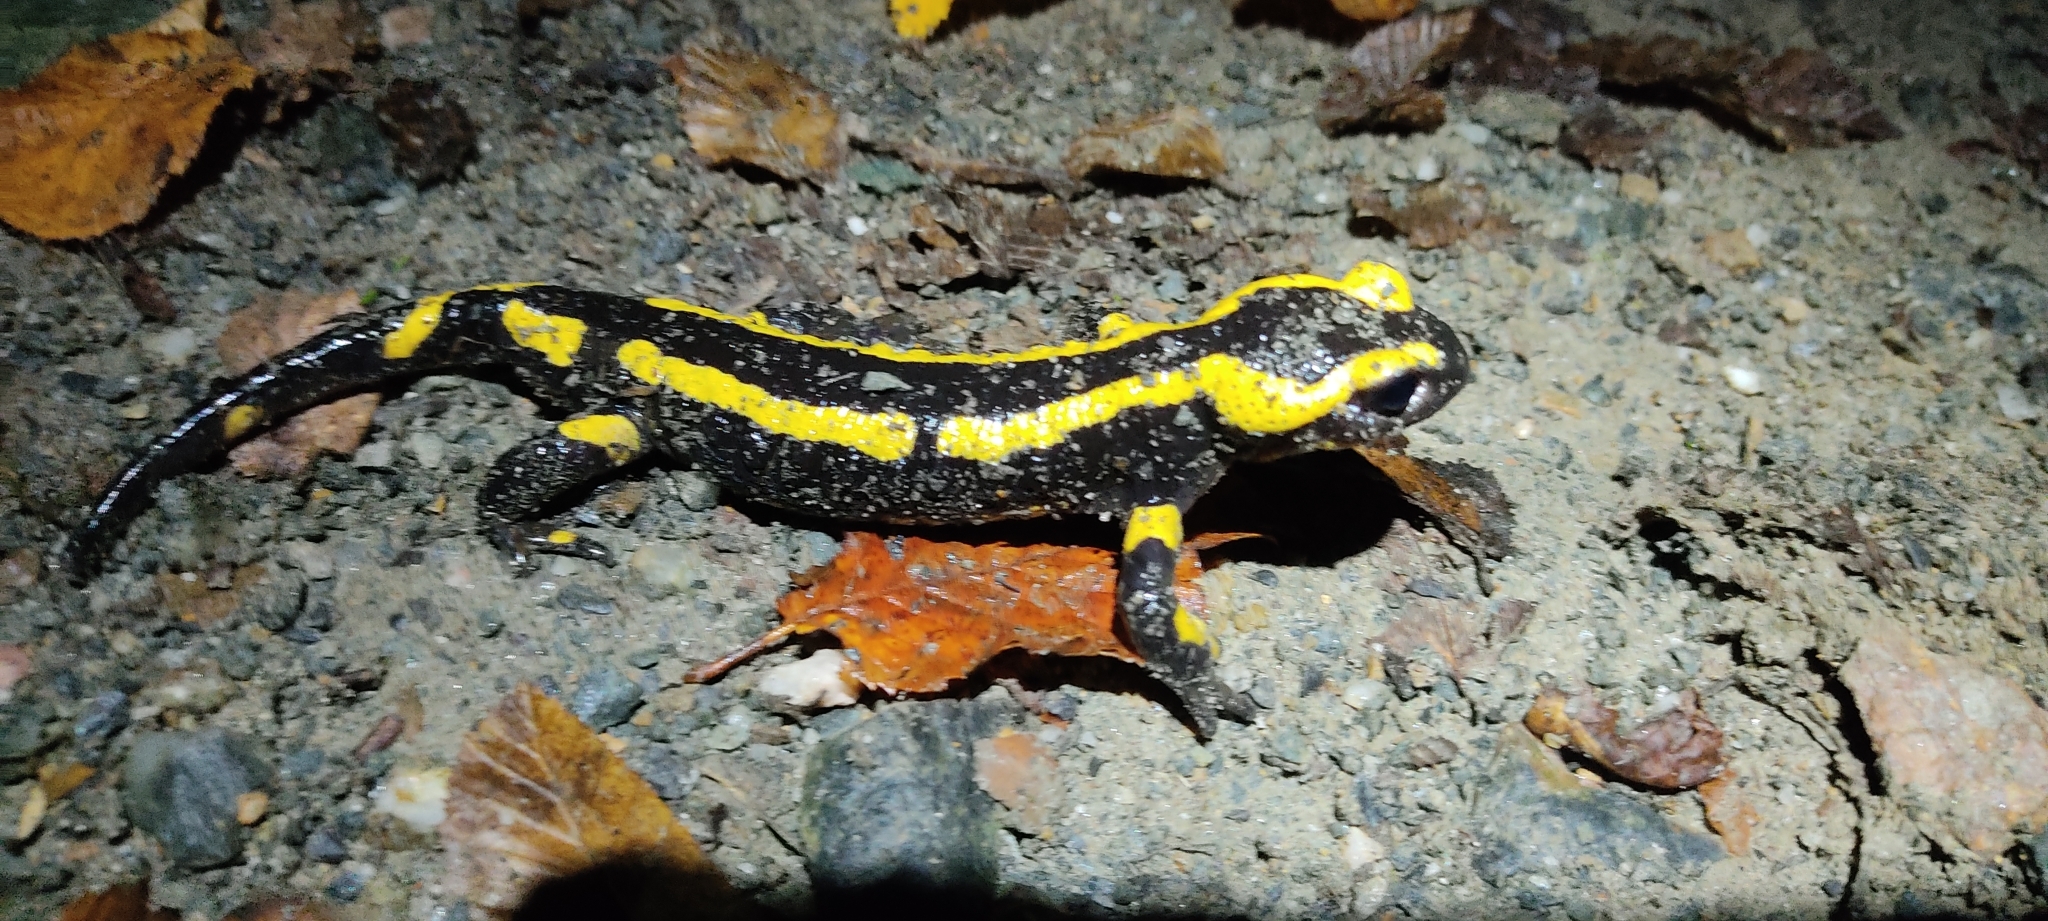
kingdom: Animalia
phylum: Chordata
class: Amphibia
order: Caudata
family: Salamandridae
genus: Salamandra
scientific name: Salamandra salamandra
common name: Fire salamander
